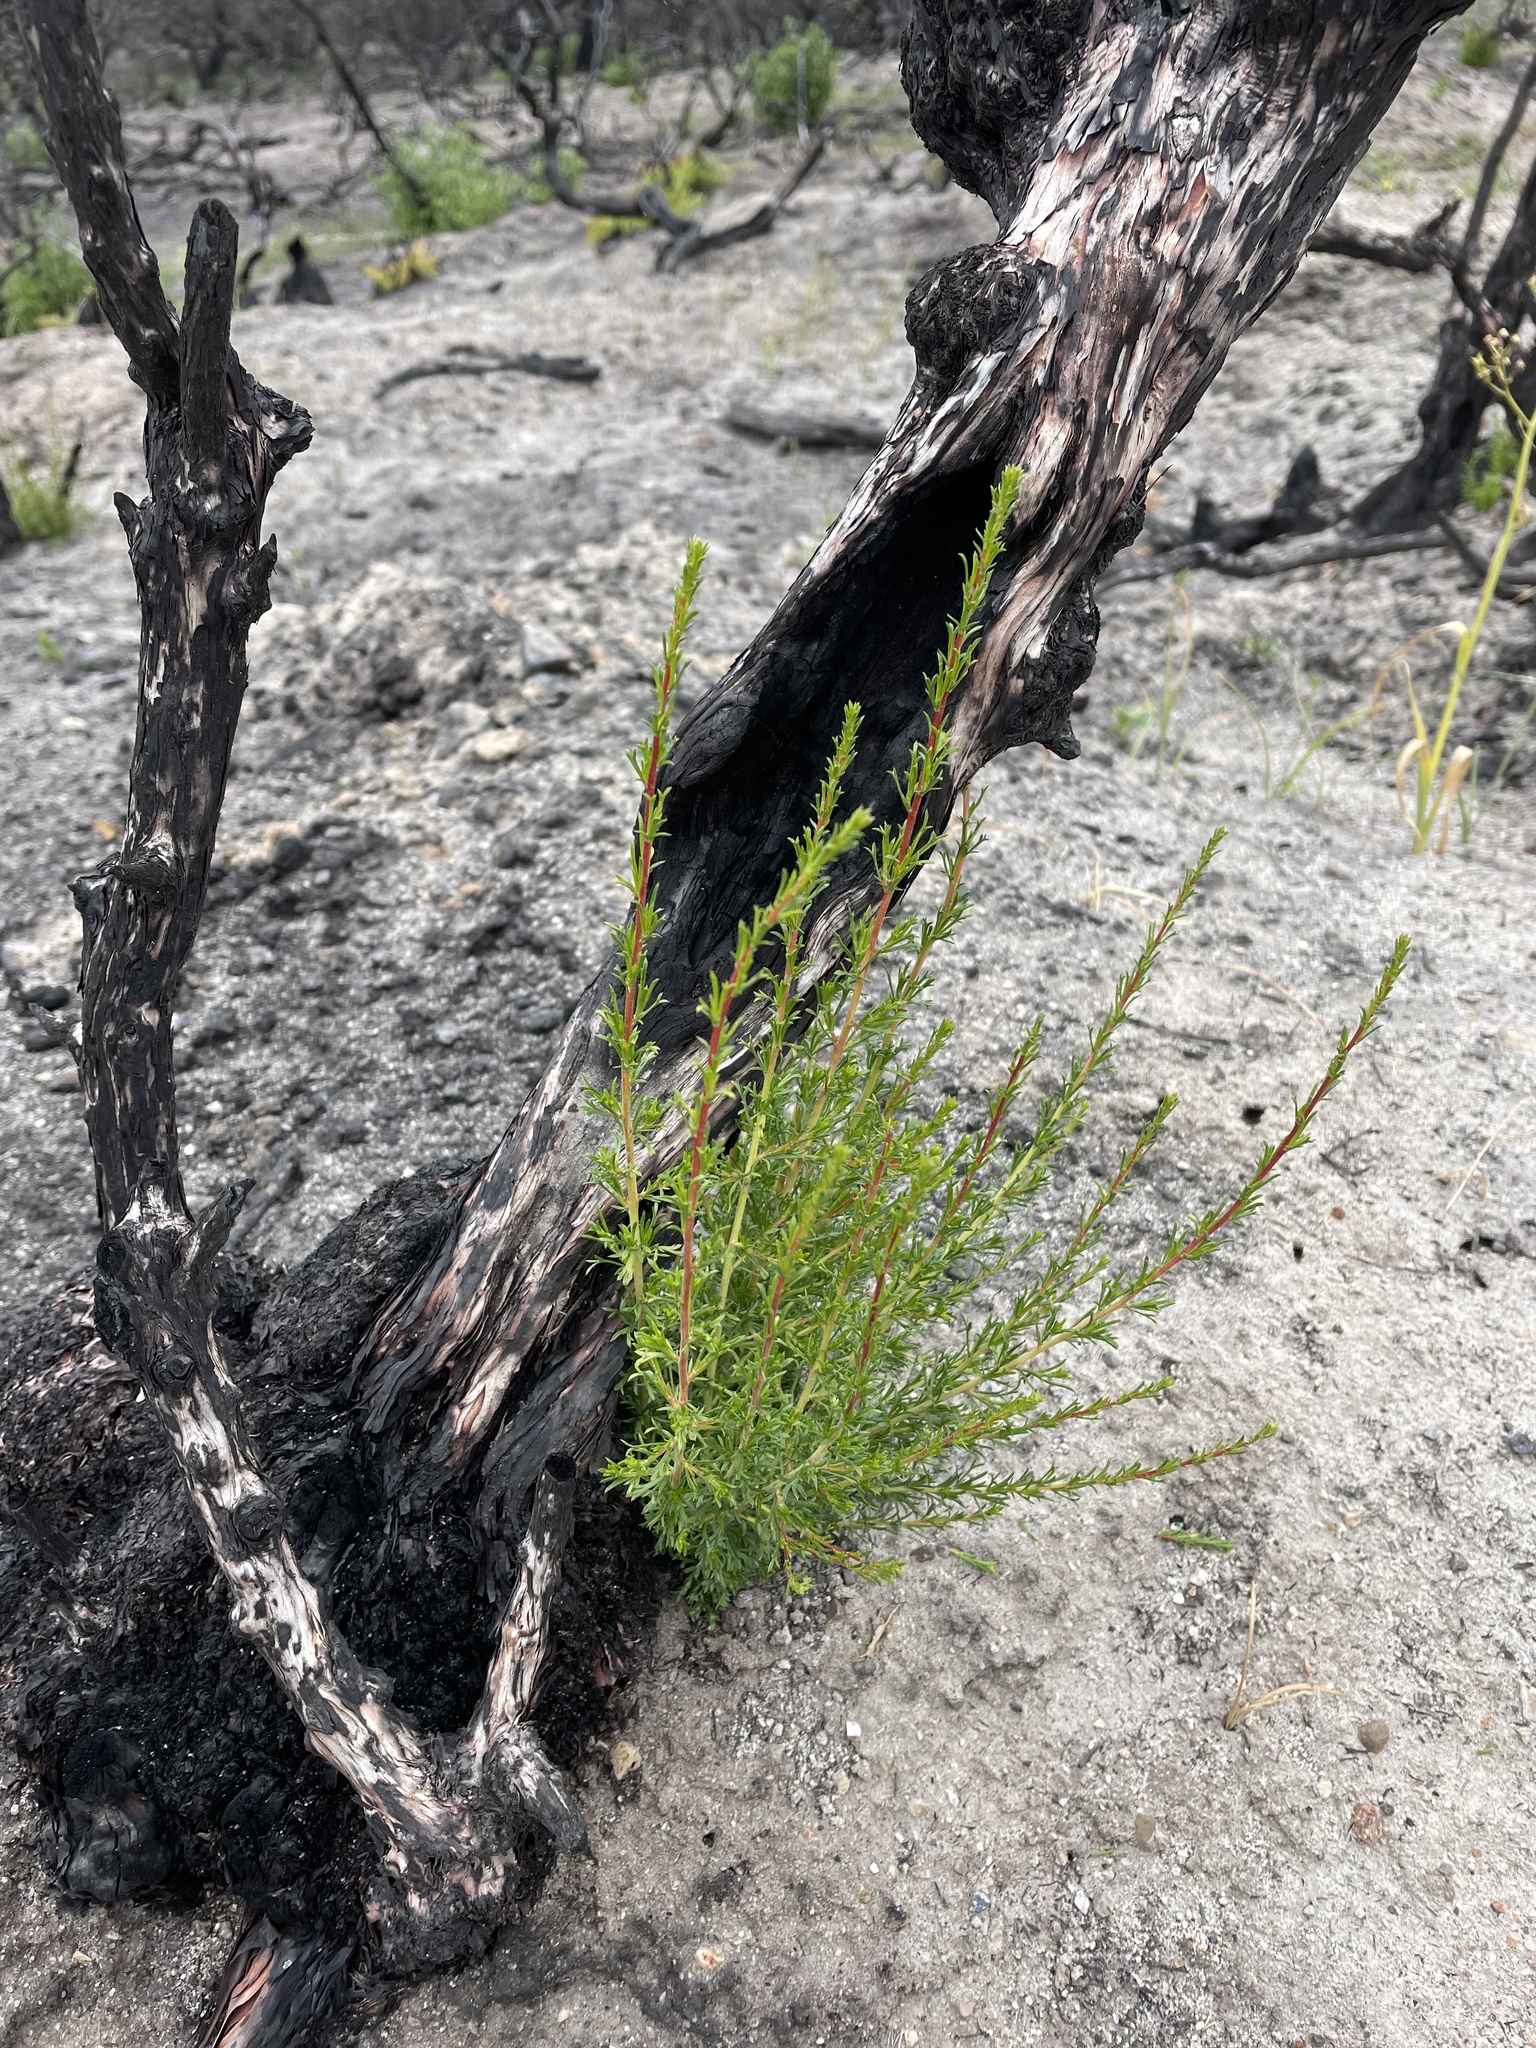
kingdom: Plantae
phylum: Tracheophyta
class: Magnoliopsida
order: Rosales
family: Rosaceae
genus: Adenostoma
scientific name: Adenostoma fasciculatum
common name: Chamise
